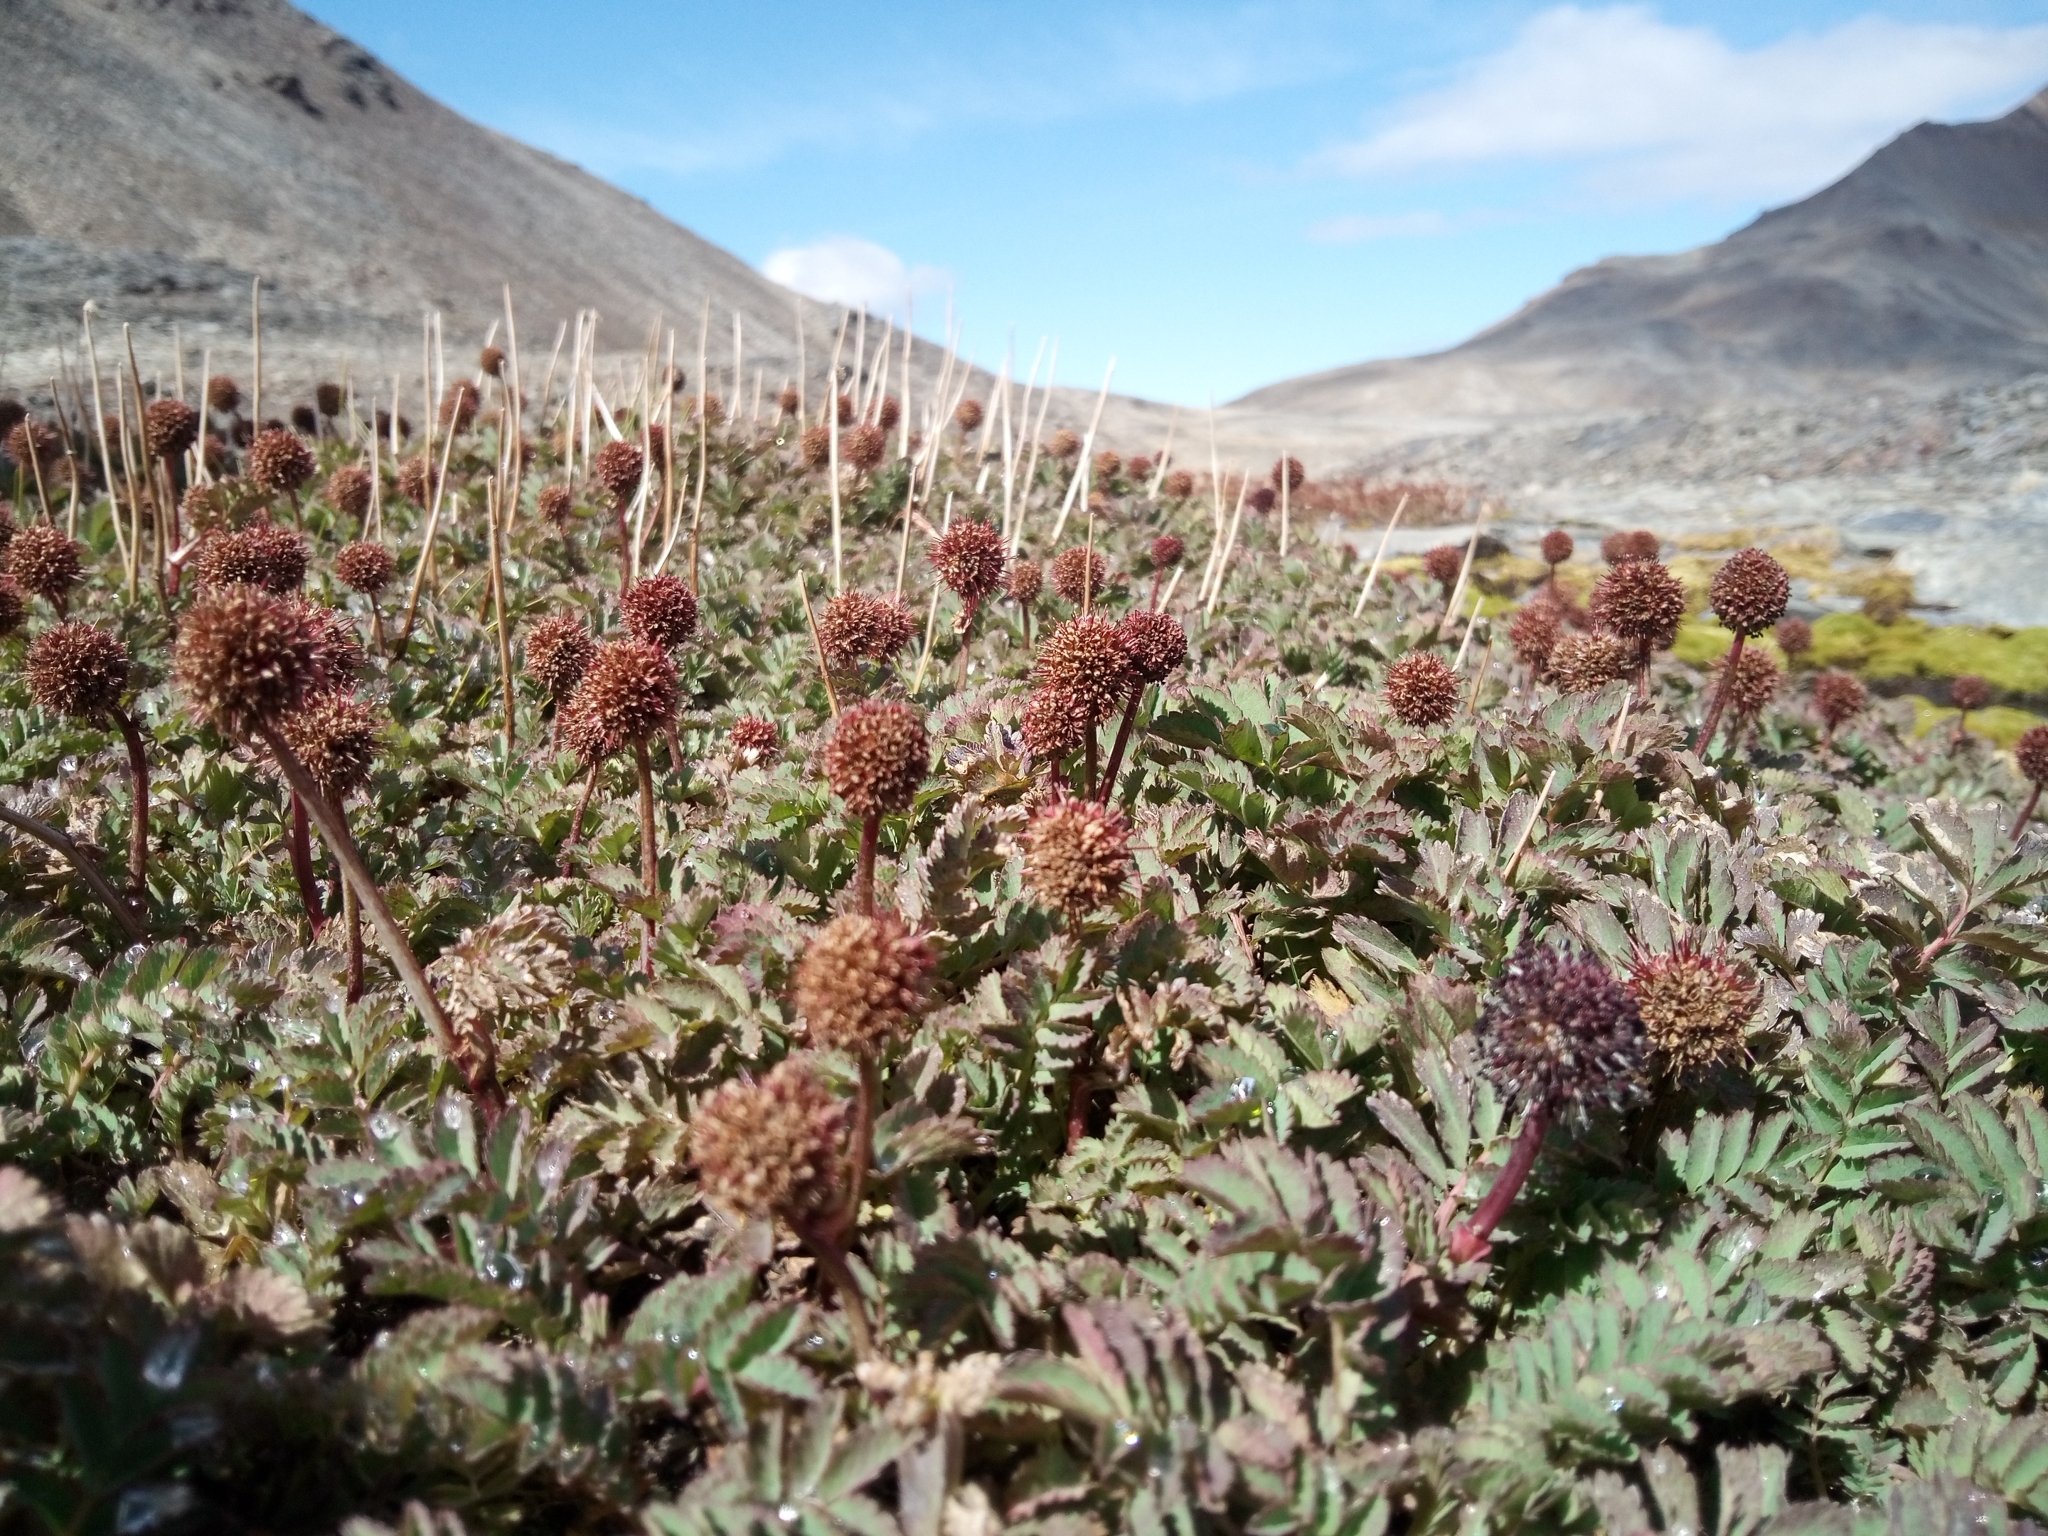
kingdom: Plantae
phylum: Tracheophyta
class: Magnoliopsida
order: Rosales
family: Rosaceae
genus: Acaena
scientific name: Acaena magellanica
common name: New zealand burr
